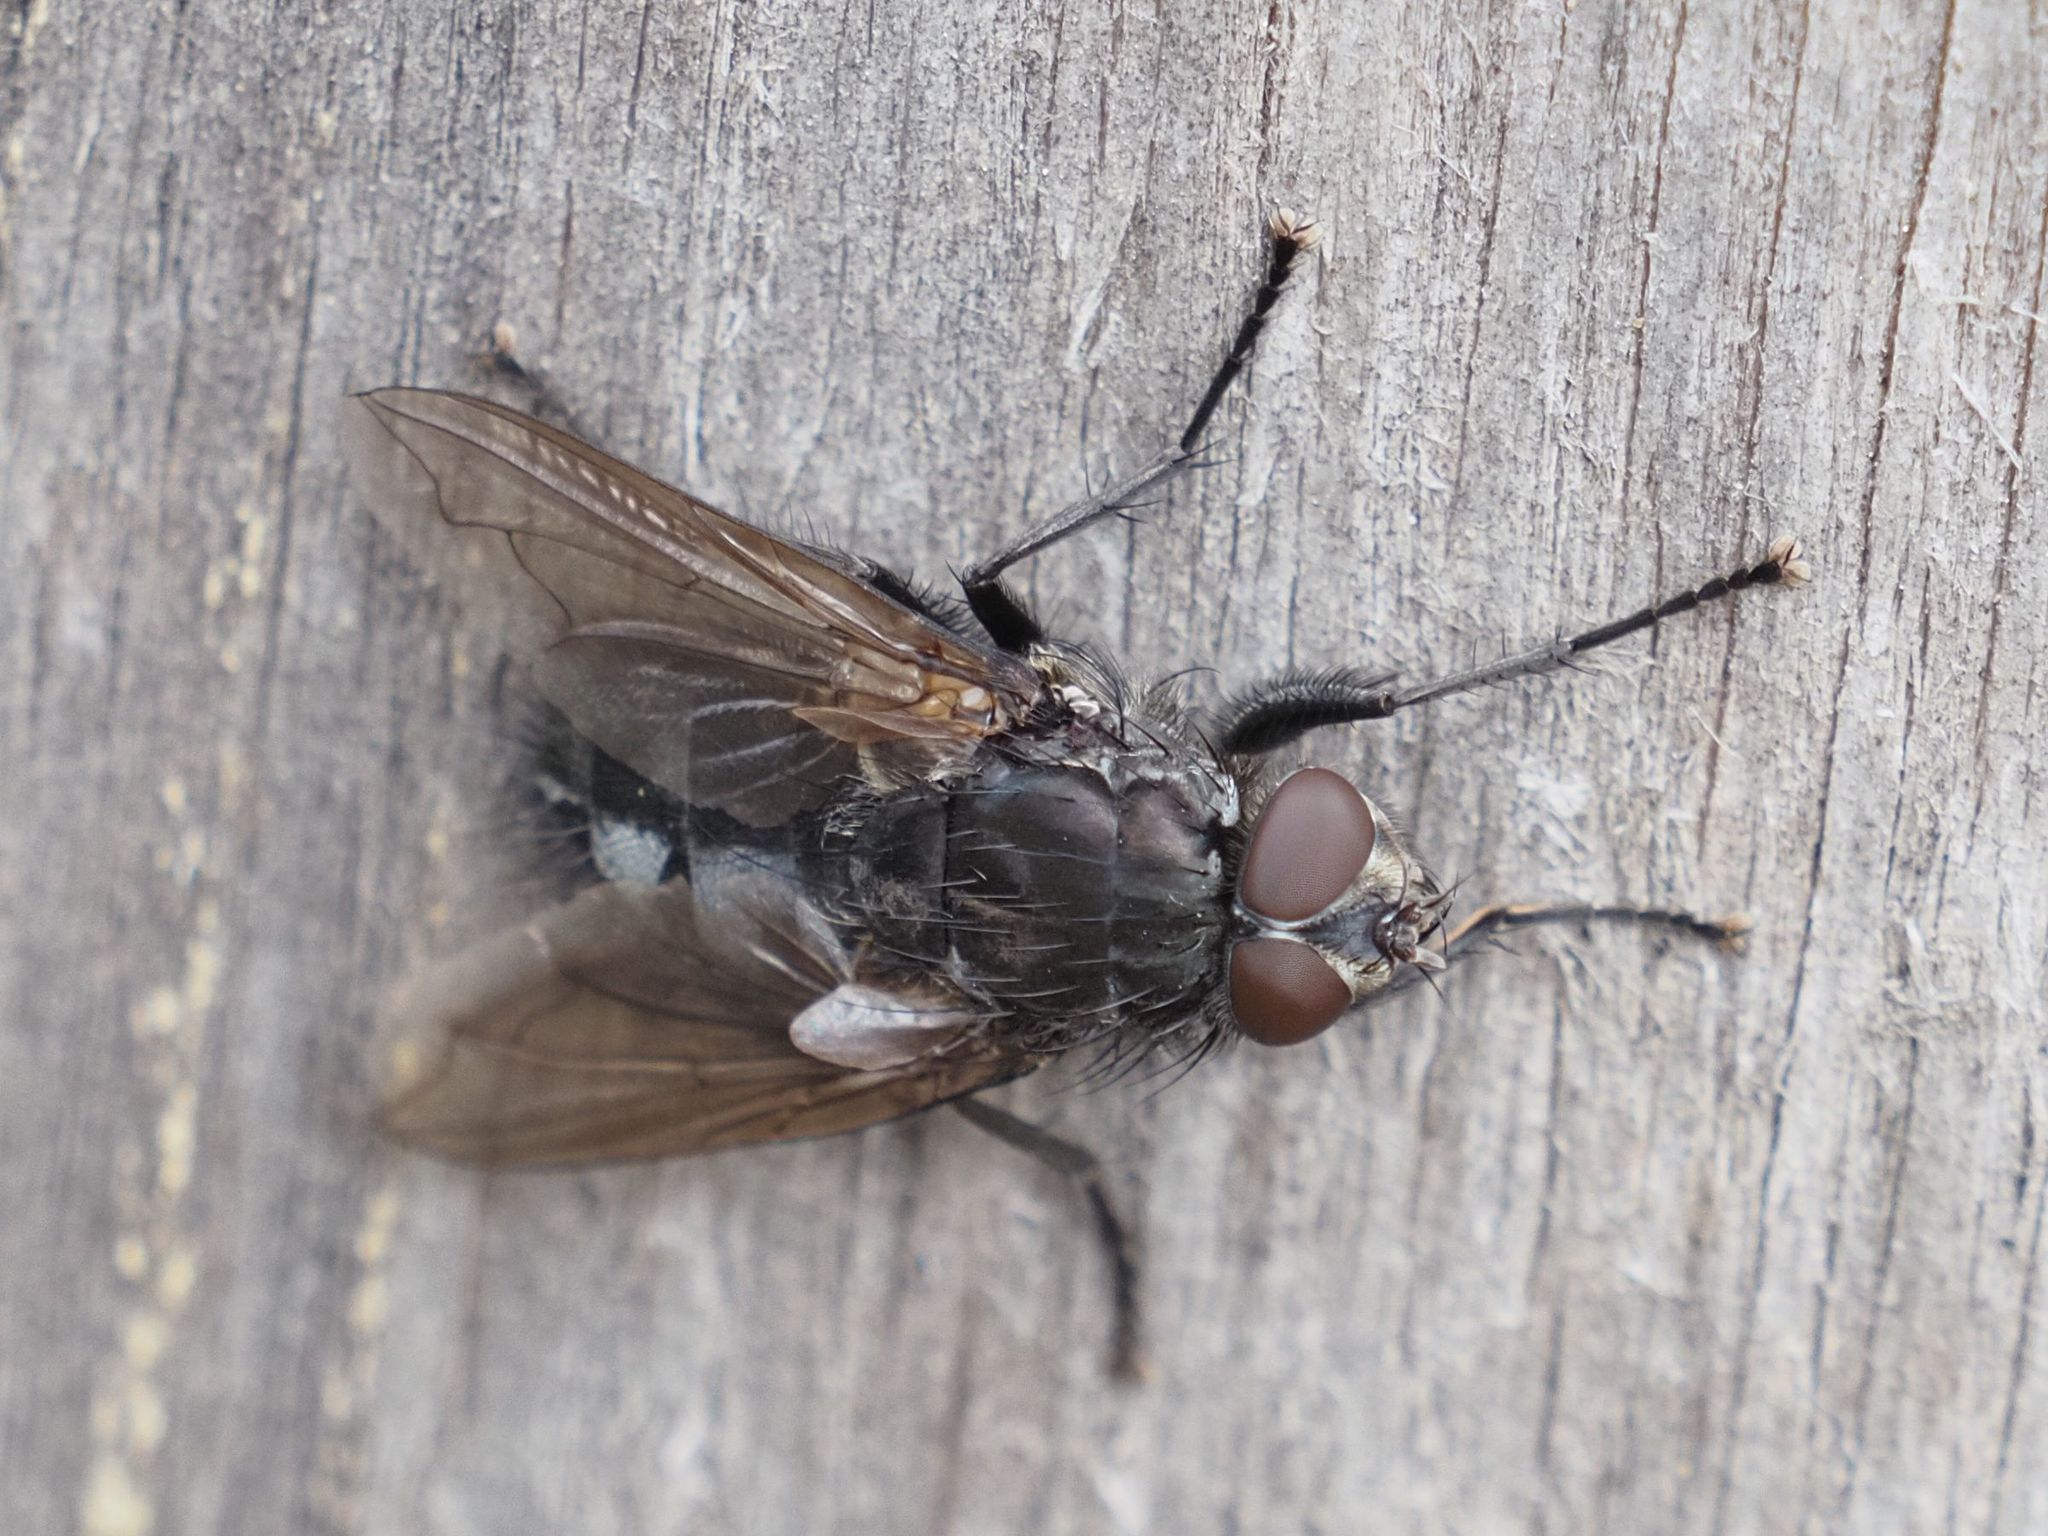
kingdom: Animalia
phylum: Arthropoda
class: Insecta
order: Diptera
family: Polleniidae
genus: Pollenia
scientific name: Pollenia vagabunda
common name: Vagabund cluster fly
